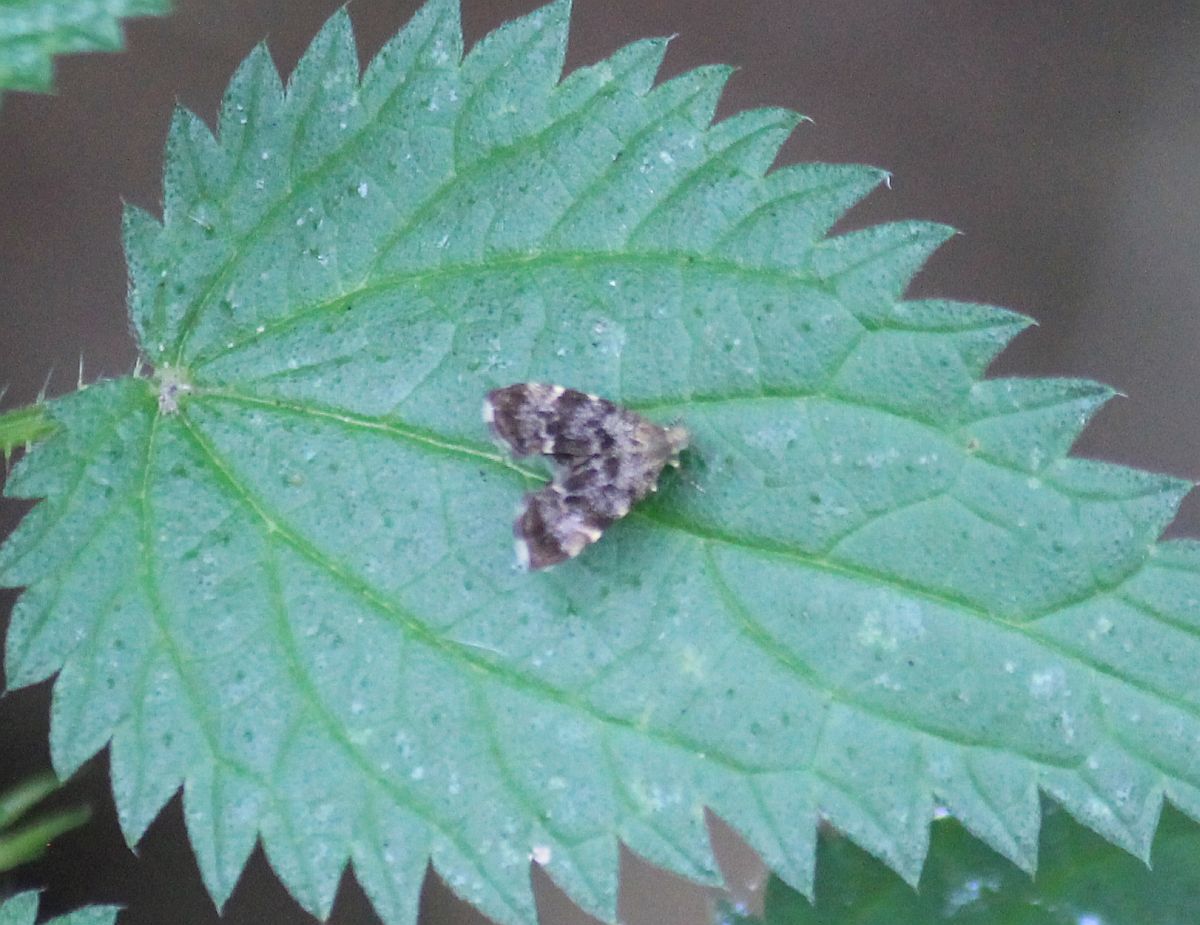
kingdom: Animalia
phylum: Arthropoda
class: Insecta
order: Lepidoptera
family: Choreutidae
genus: Anthophila
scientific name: Anthophila fabriciana
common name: Nettle-tap
